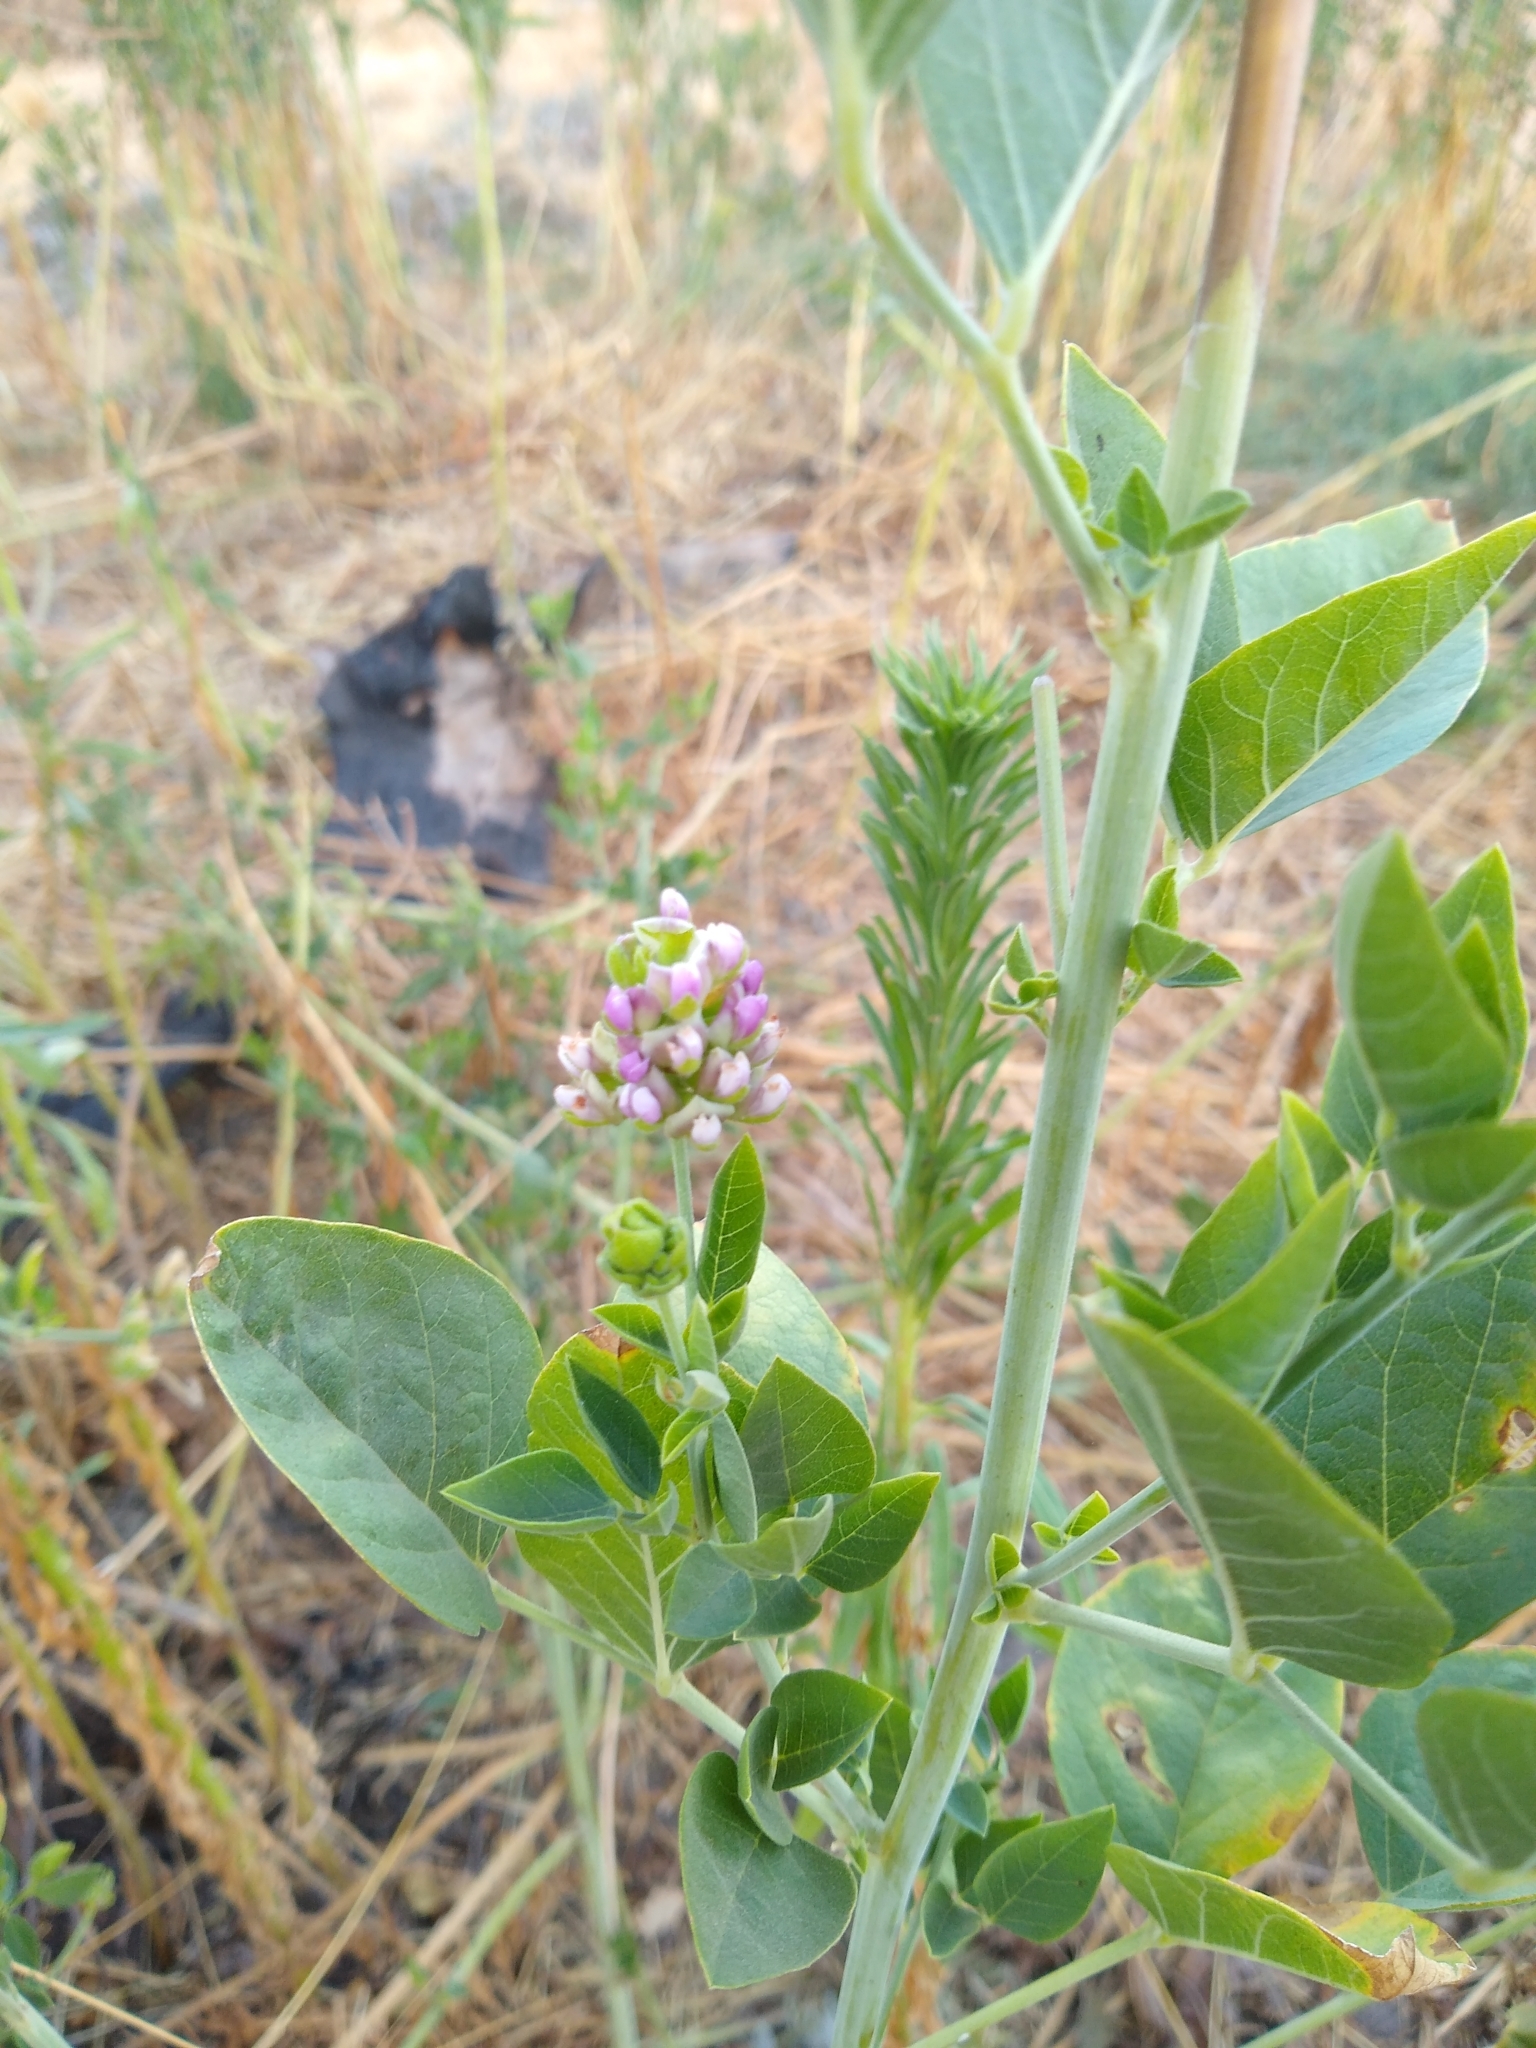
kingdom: Plantae
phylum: Tracheophyta
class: Magnoliopsida
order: Fabales
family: Fabaceae
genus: Hoita
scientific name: Hoita macrostachya
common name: Leatherroot
